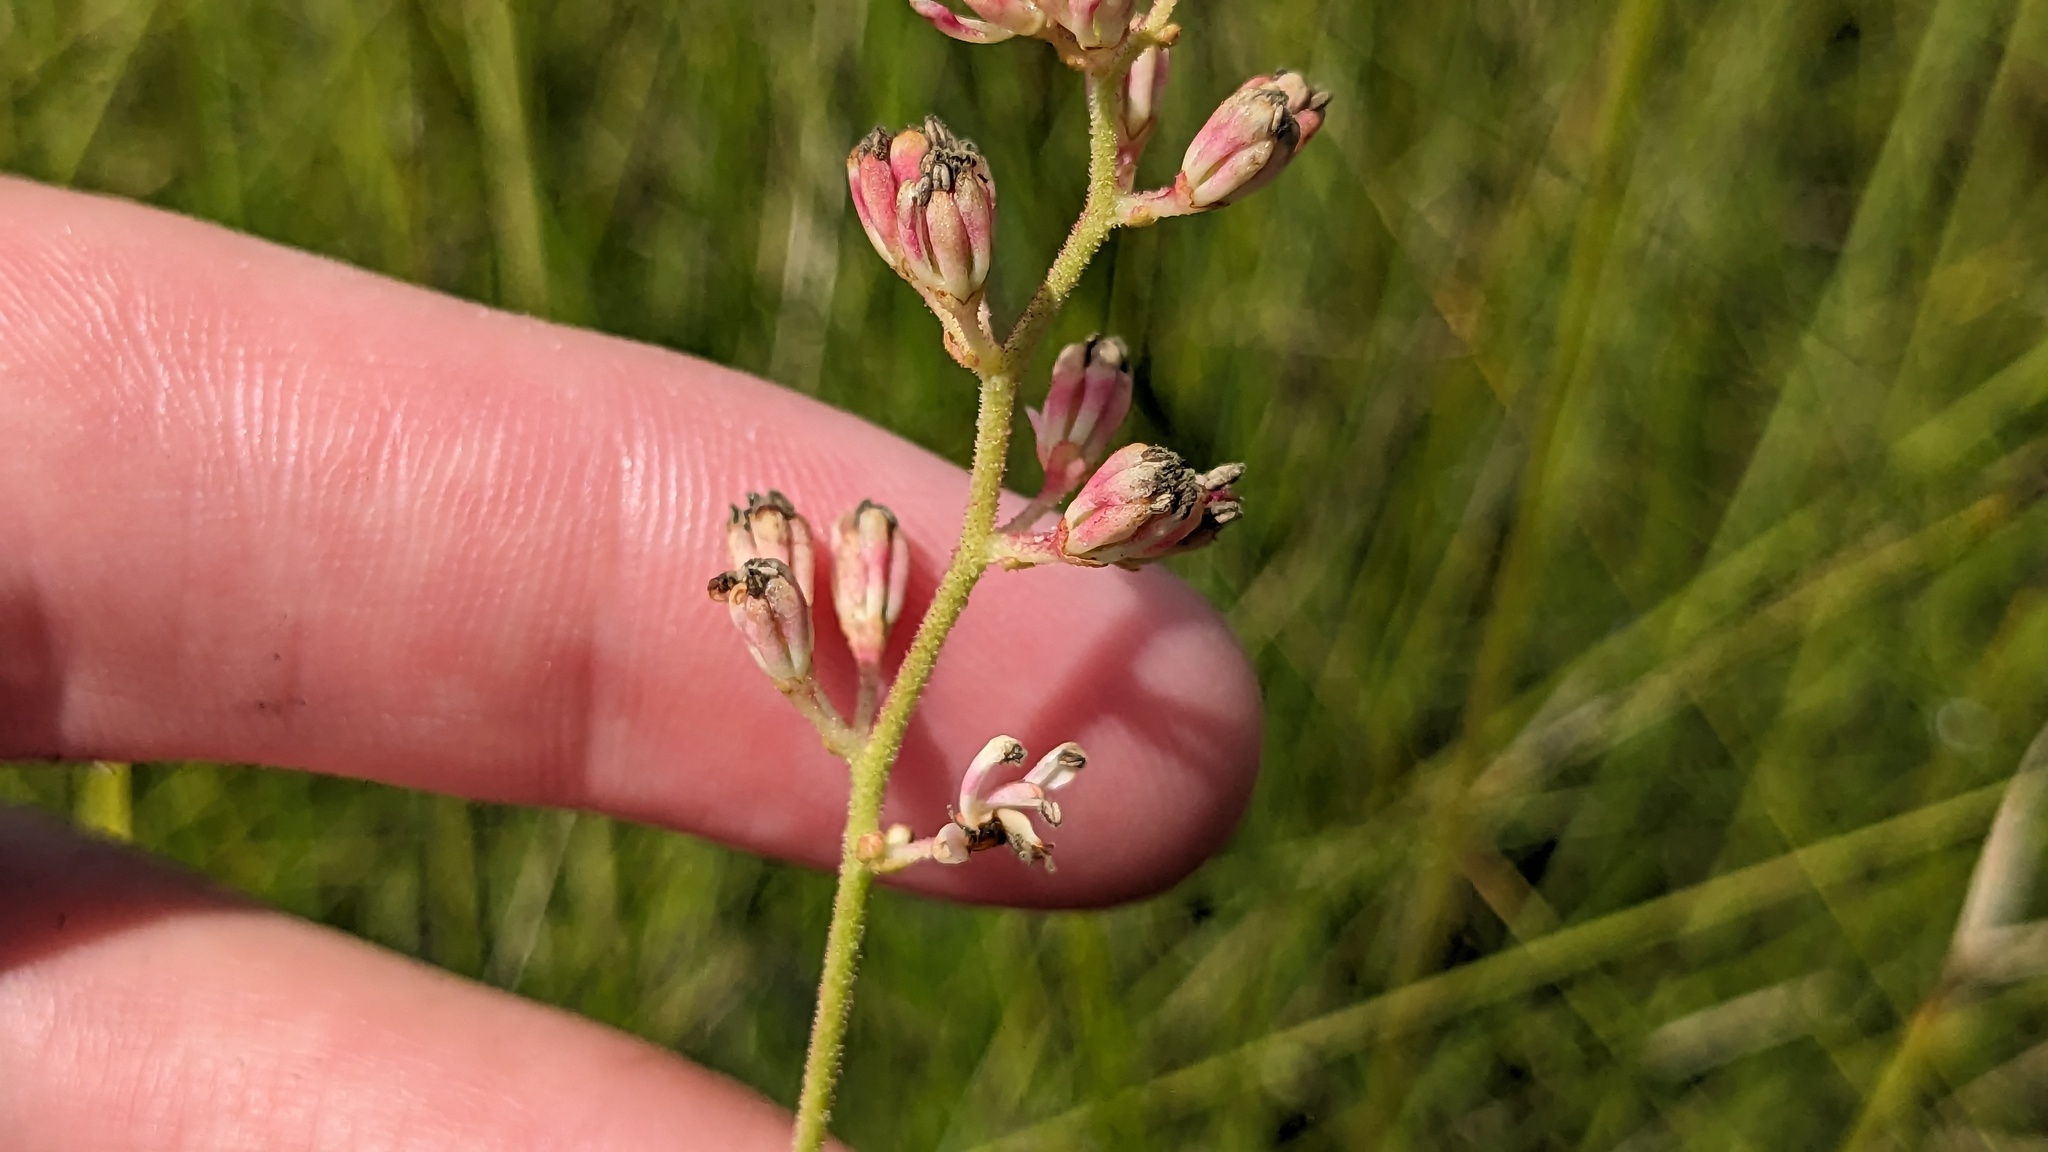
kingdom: Plantae
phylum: Tracheophyta
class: Liliopsida
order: Alismatales
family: Tofieldiaceae
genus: Triantha
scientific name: Triantha racemosa
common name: Coastal false asphodel
